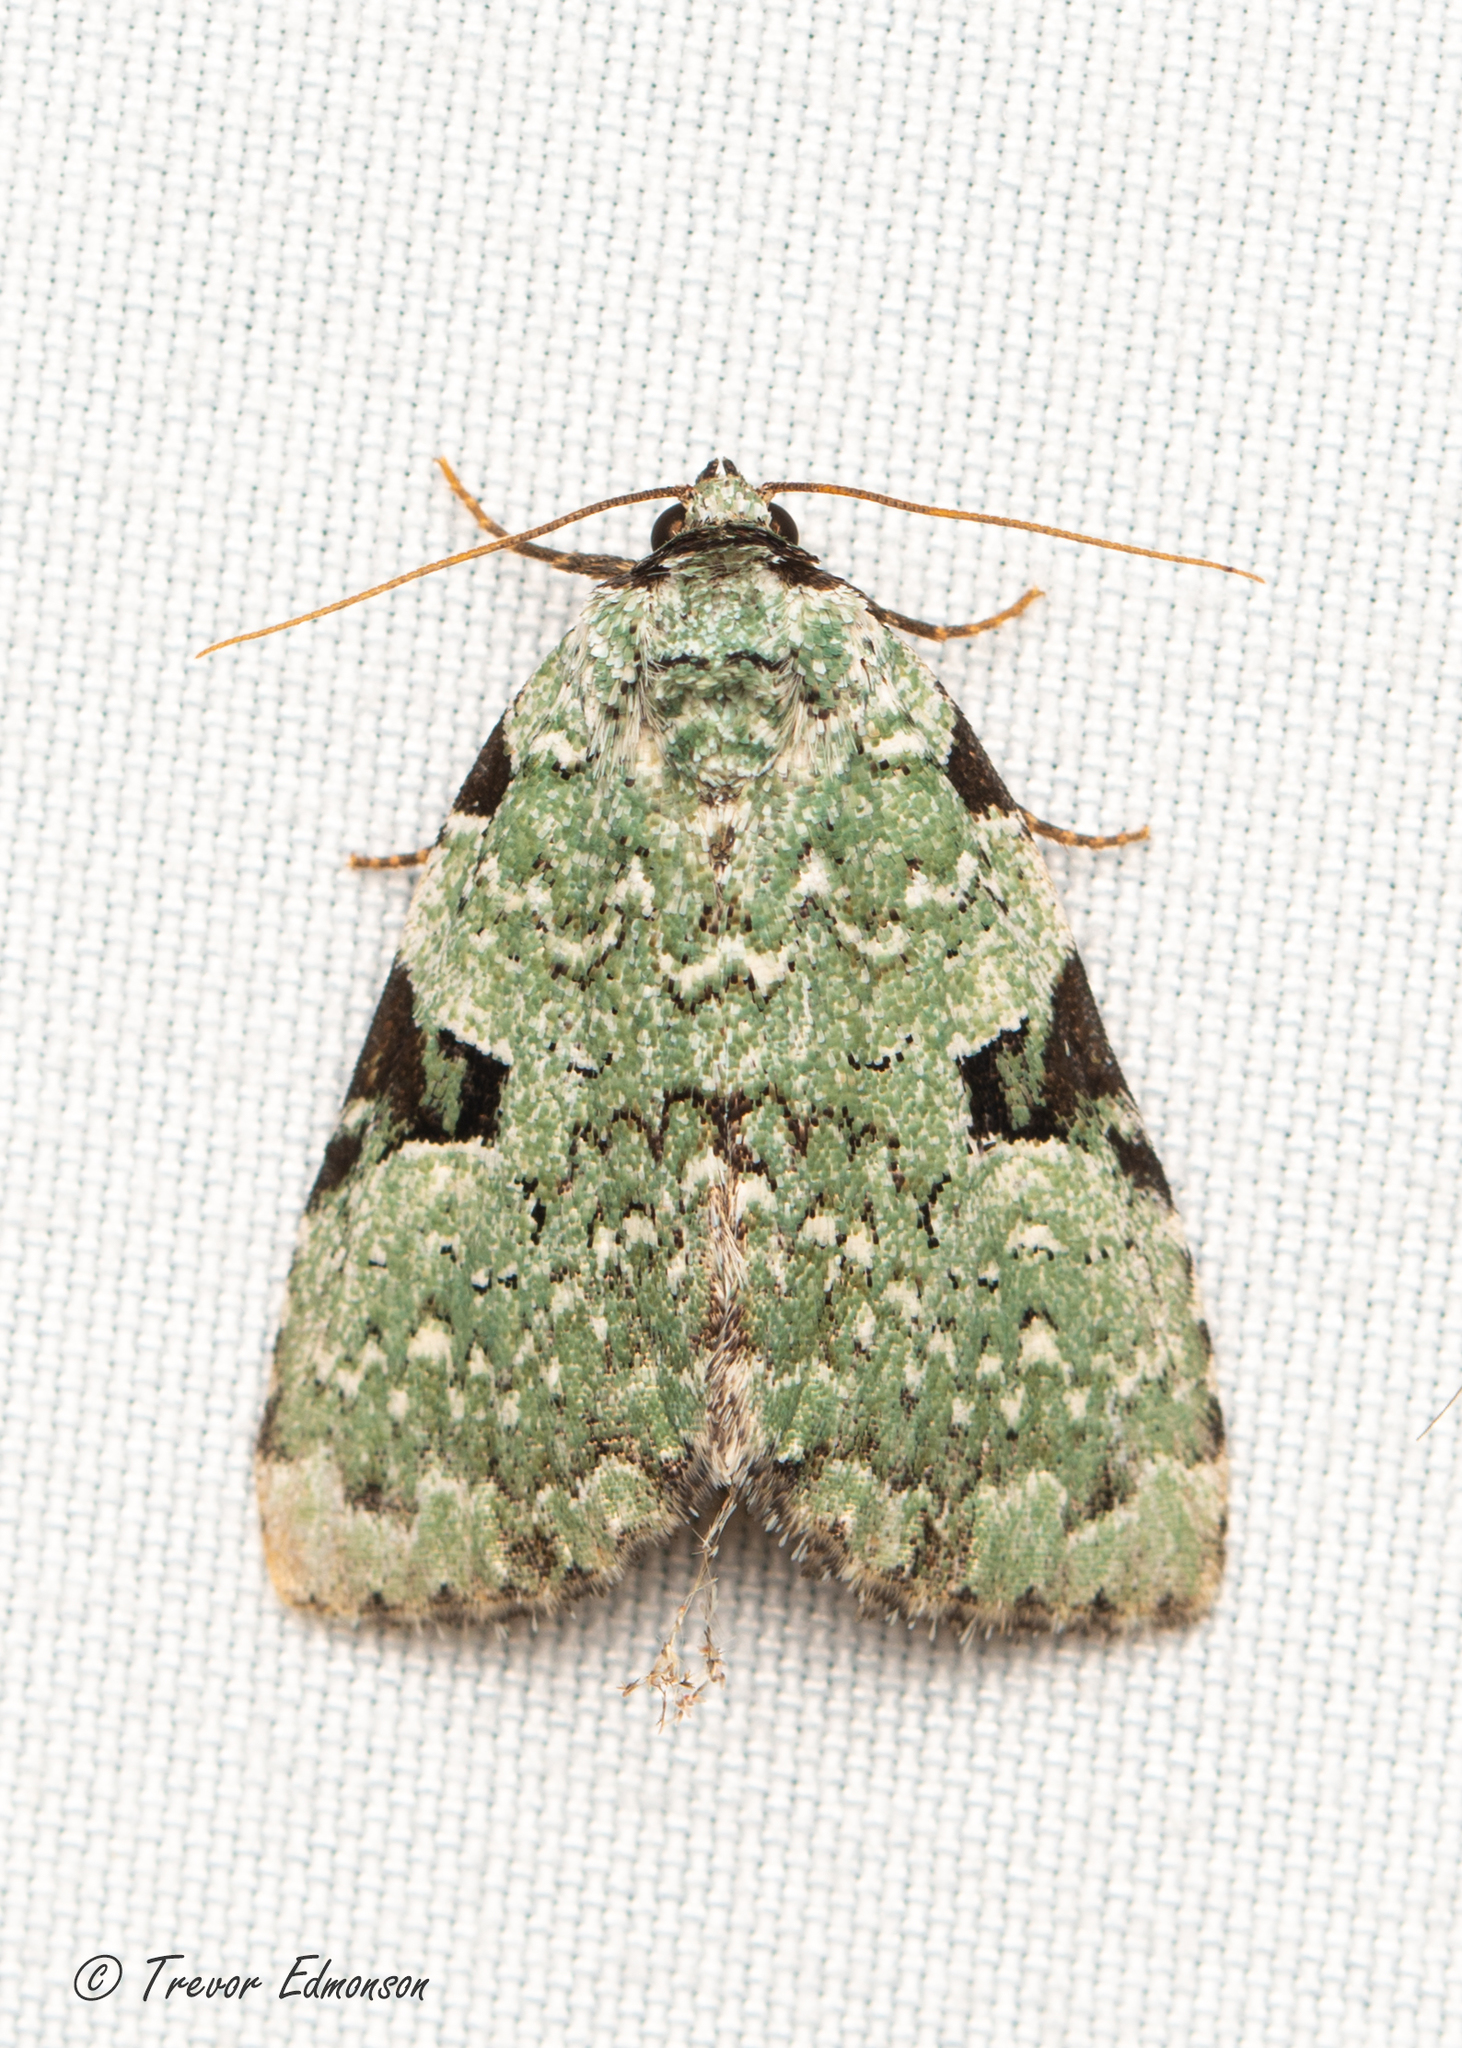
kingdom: Animalia
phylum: Arthropoda
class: Insecta
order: Lepidoptera
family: Noctuidae
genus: Leuconycta
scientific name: Leuconycta diphteroides
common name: Green leuconycta moth
